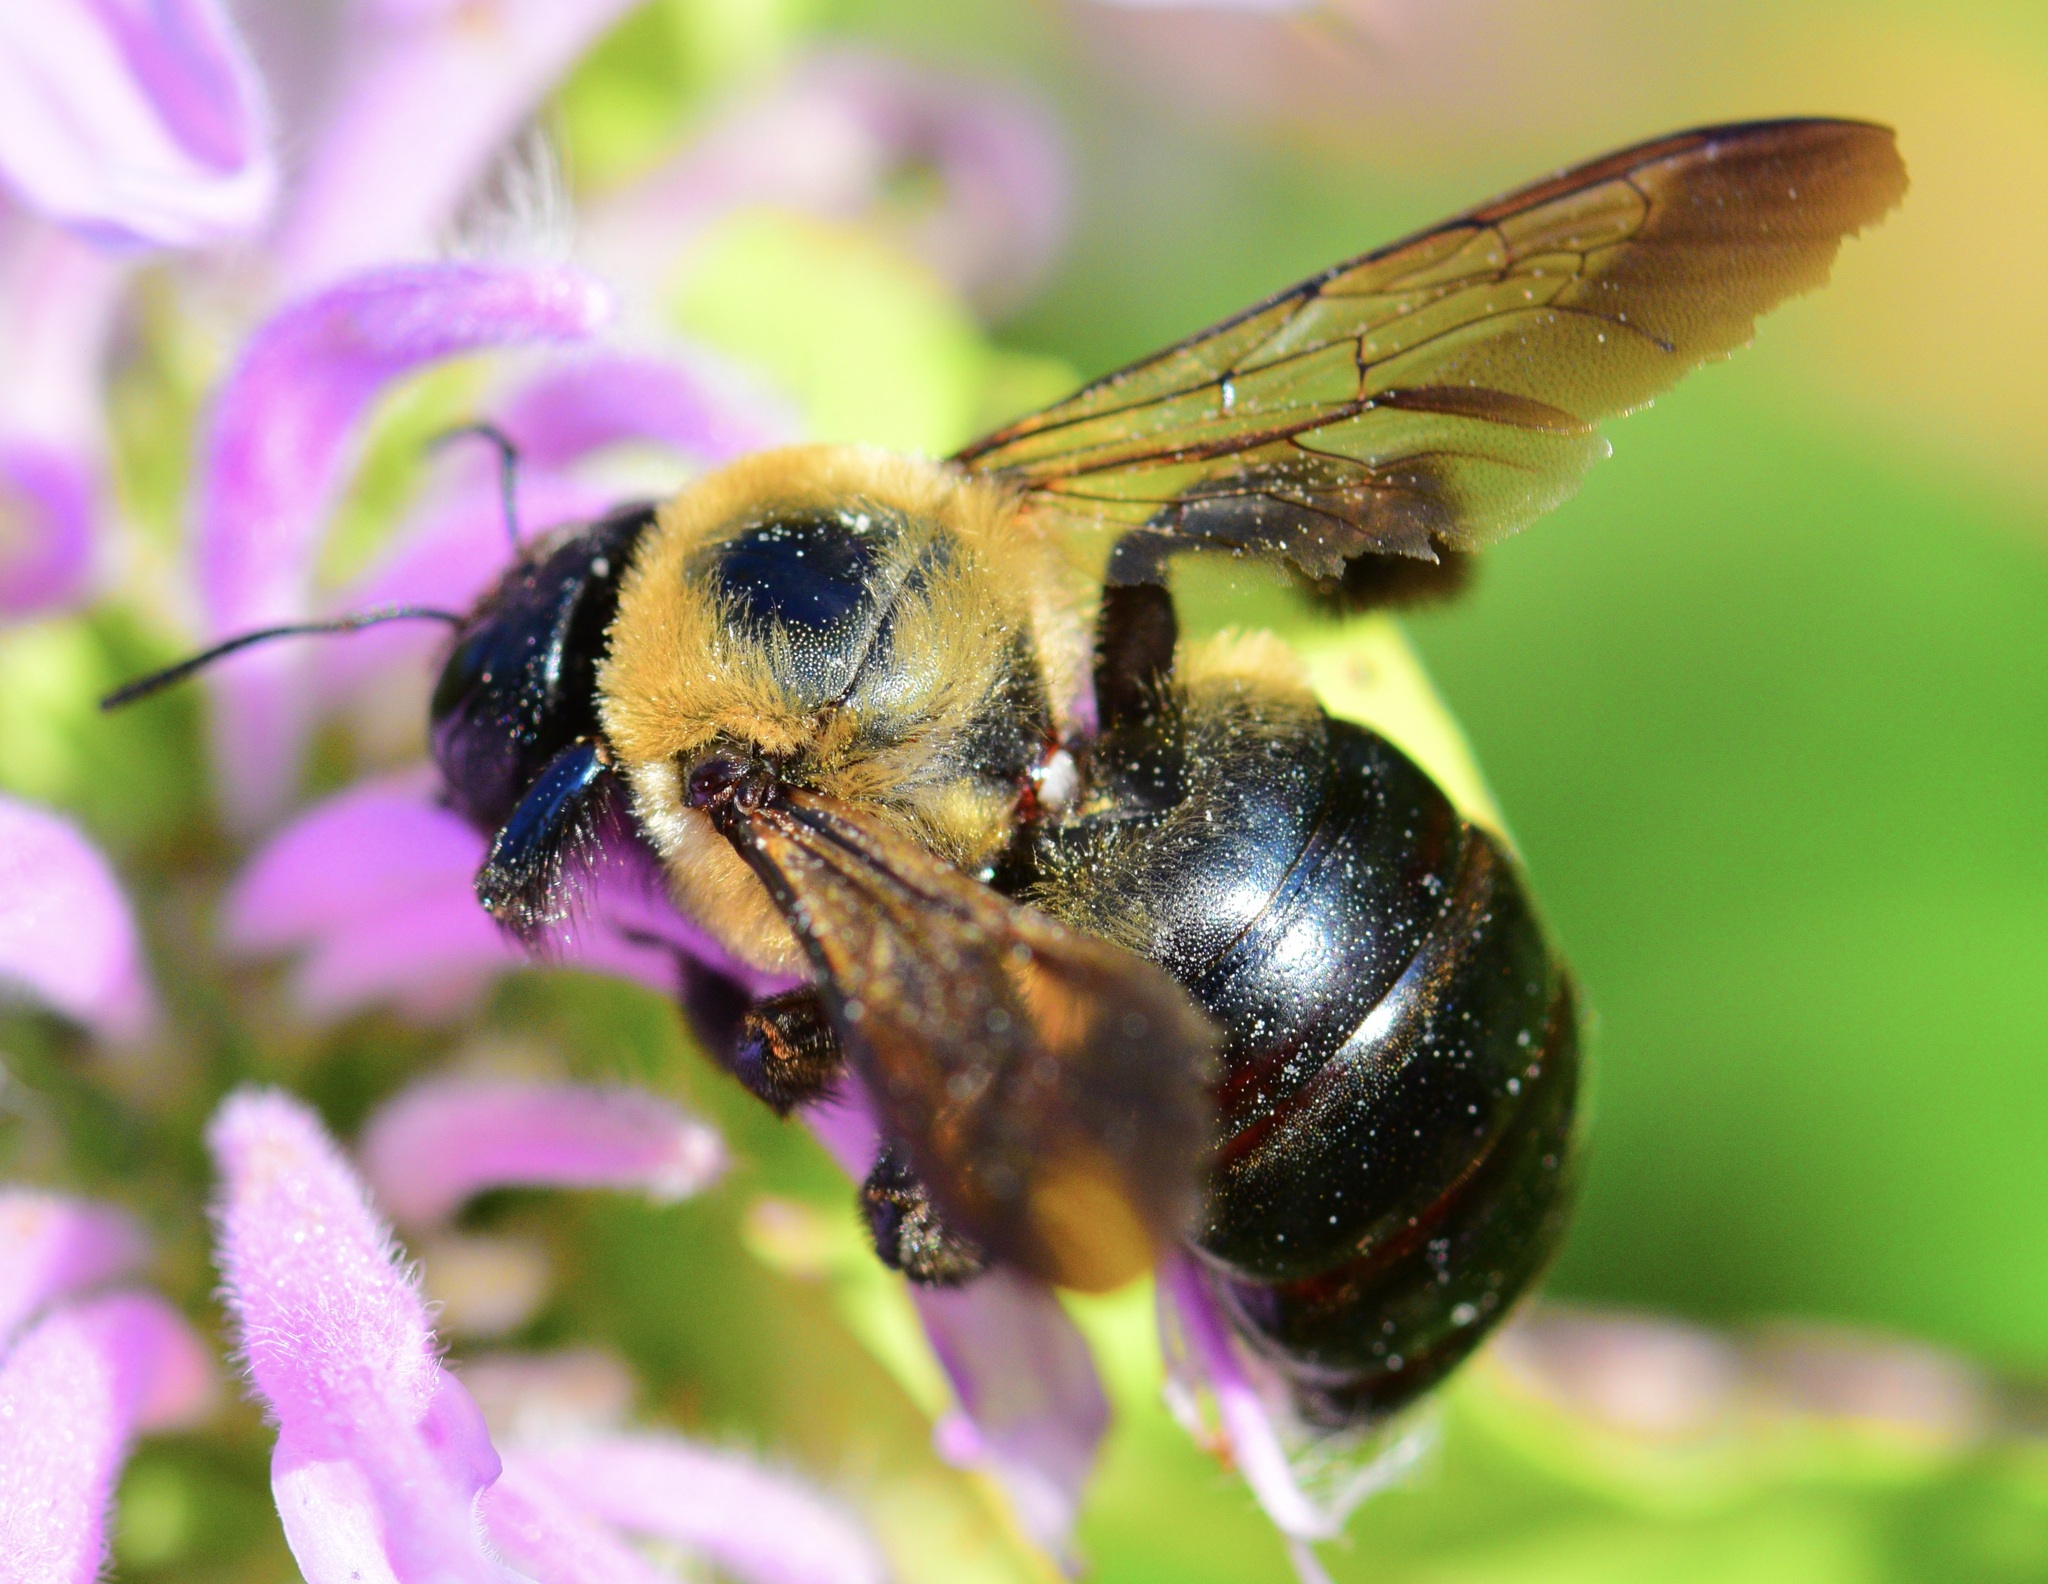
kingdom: Animalia
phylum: Arthropoda
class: Insecta
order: Hymenoptera
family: Apidae
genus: Xylocopa
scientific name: Xylocopa virginica
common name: Carpenter bee
